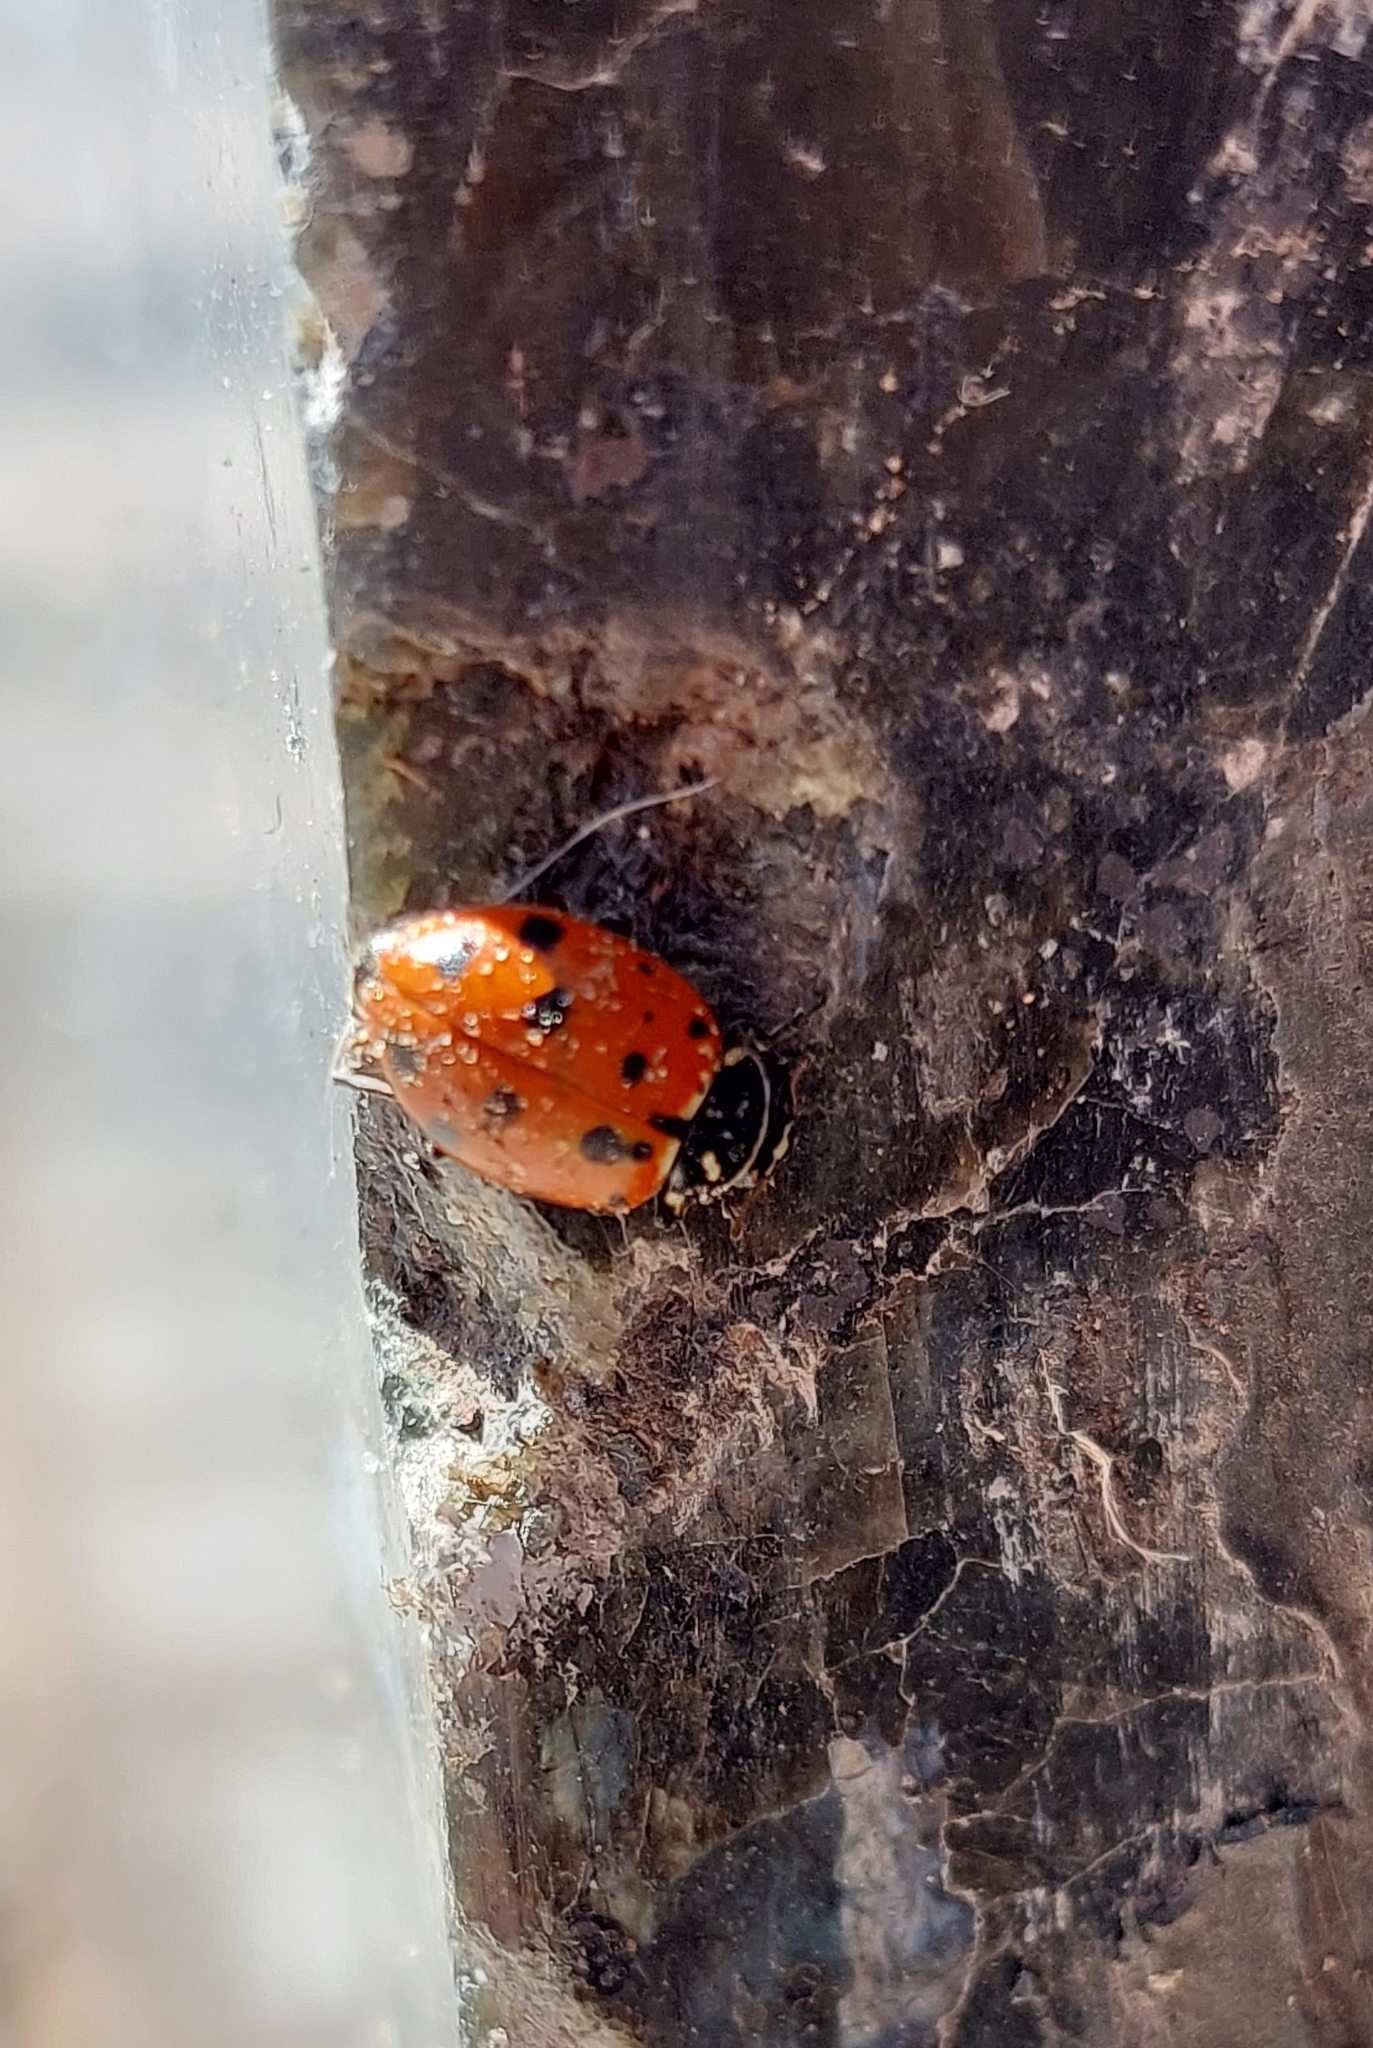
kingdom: Animalia
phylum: Arthropoda
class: Insecta
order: Coleoptera
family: Coccinellidae
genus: Hippodamia
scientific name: Hippodamia convergens
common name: Convergent lady beetle
